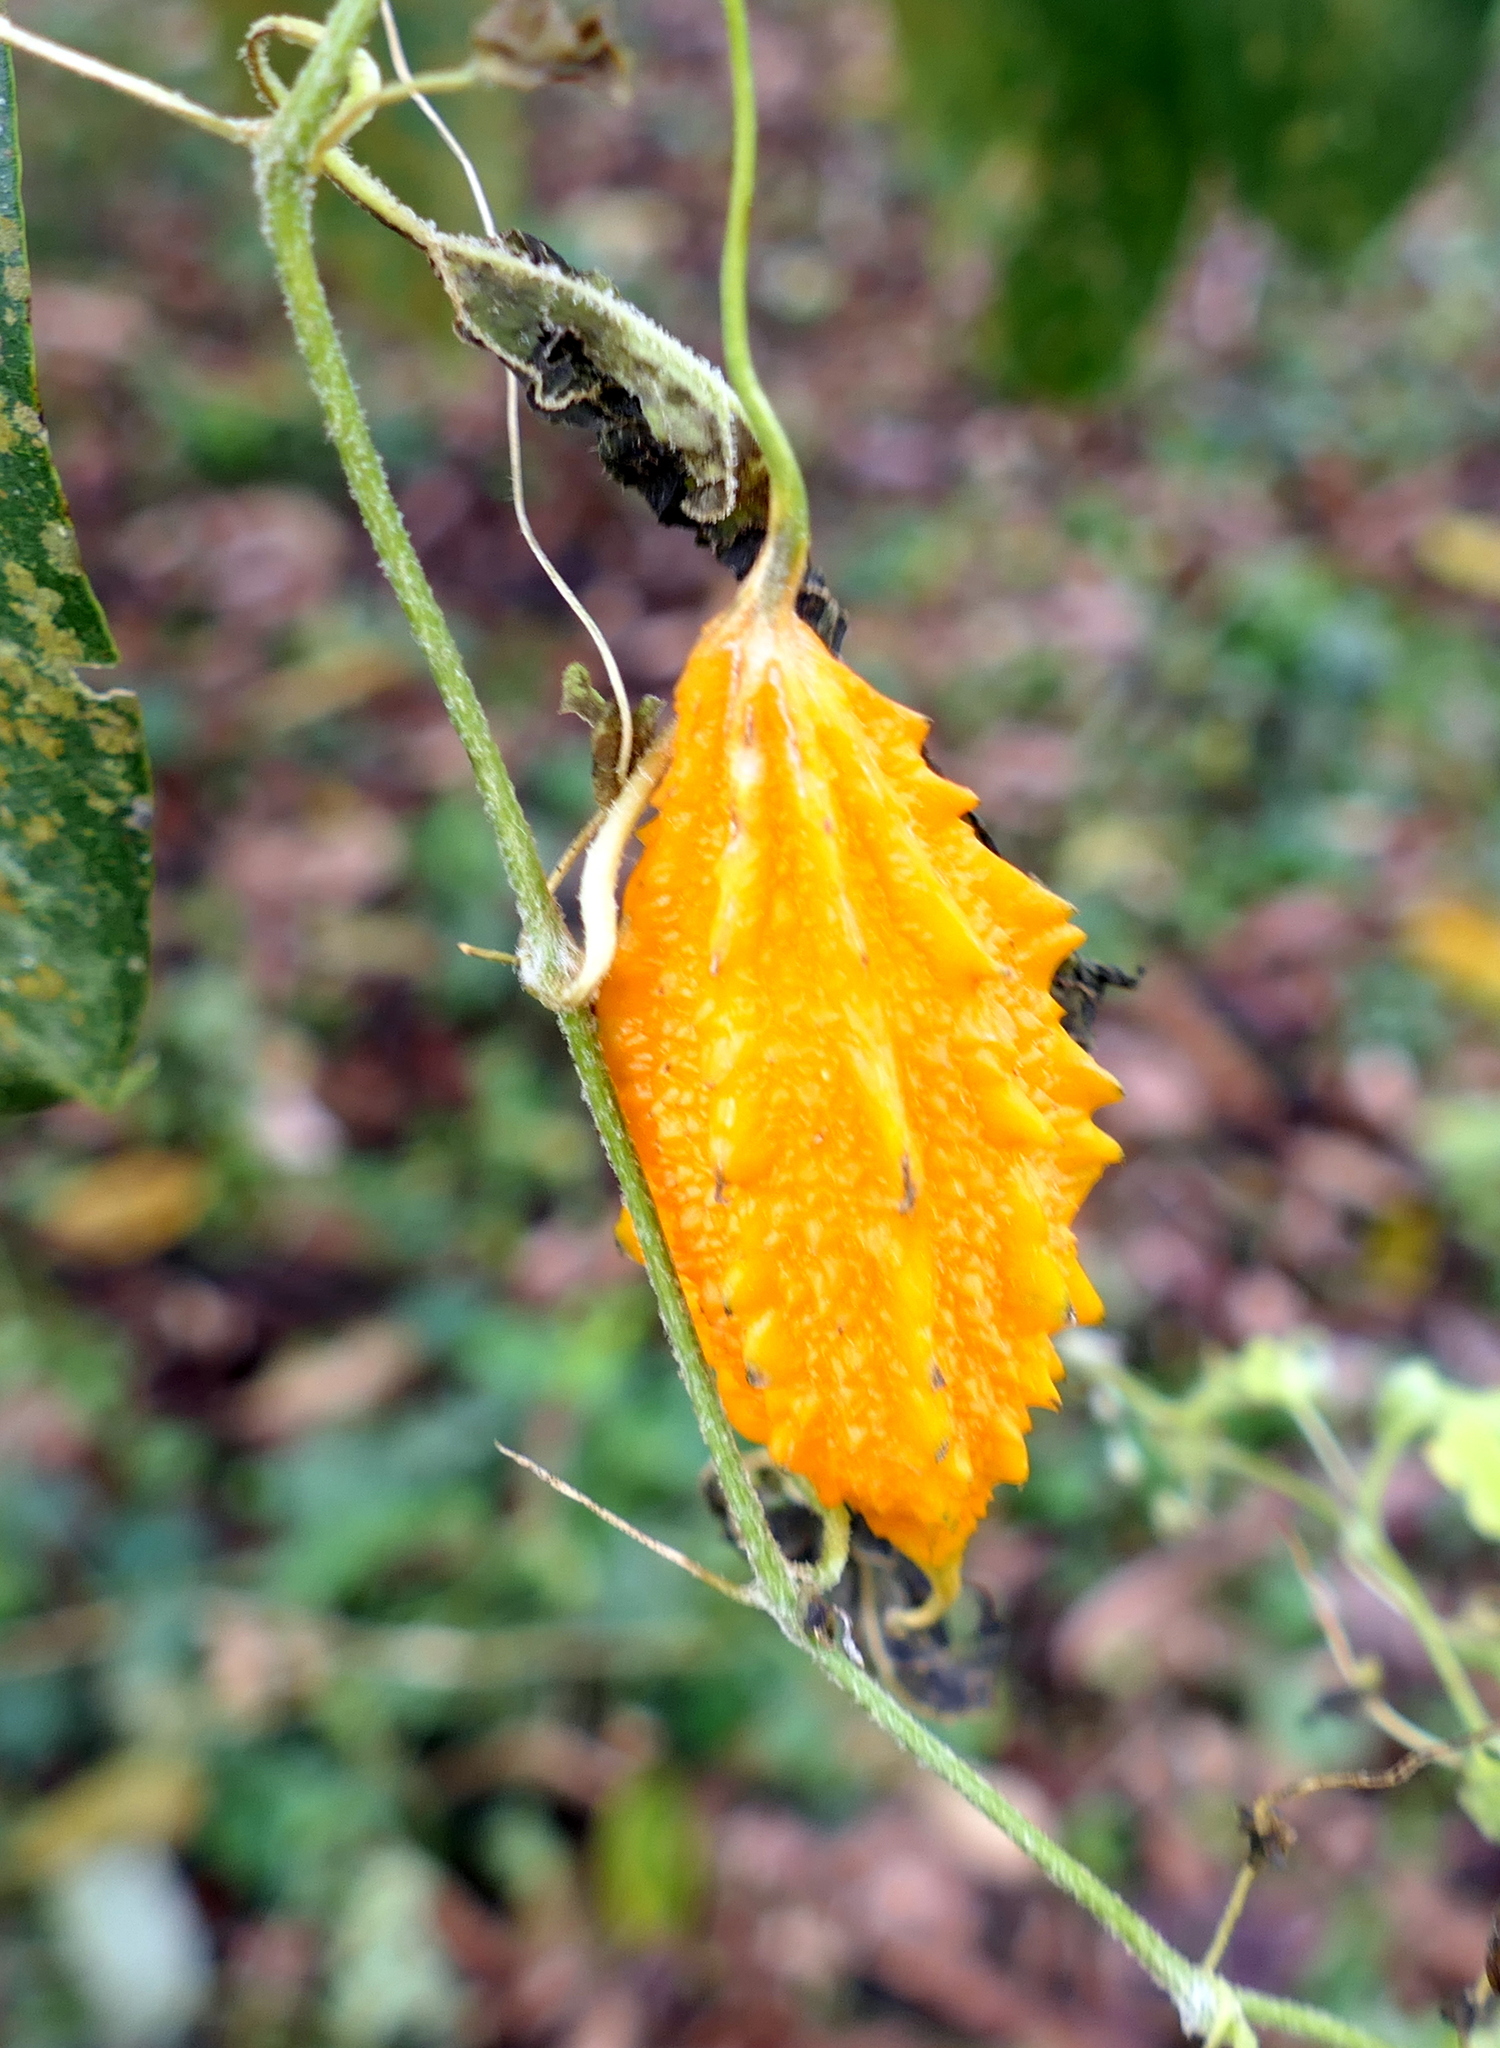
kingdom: Plantae
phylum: Tracheophyta
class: Magnoliopsida
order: Cucurbitales
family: Cucurbitaceae
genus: Momordica
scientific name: Momordica charantia
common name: Balsampear
